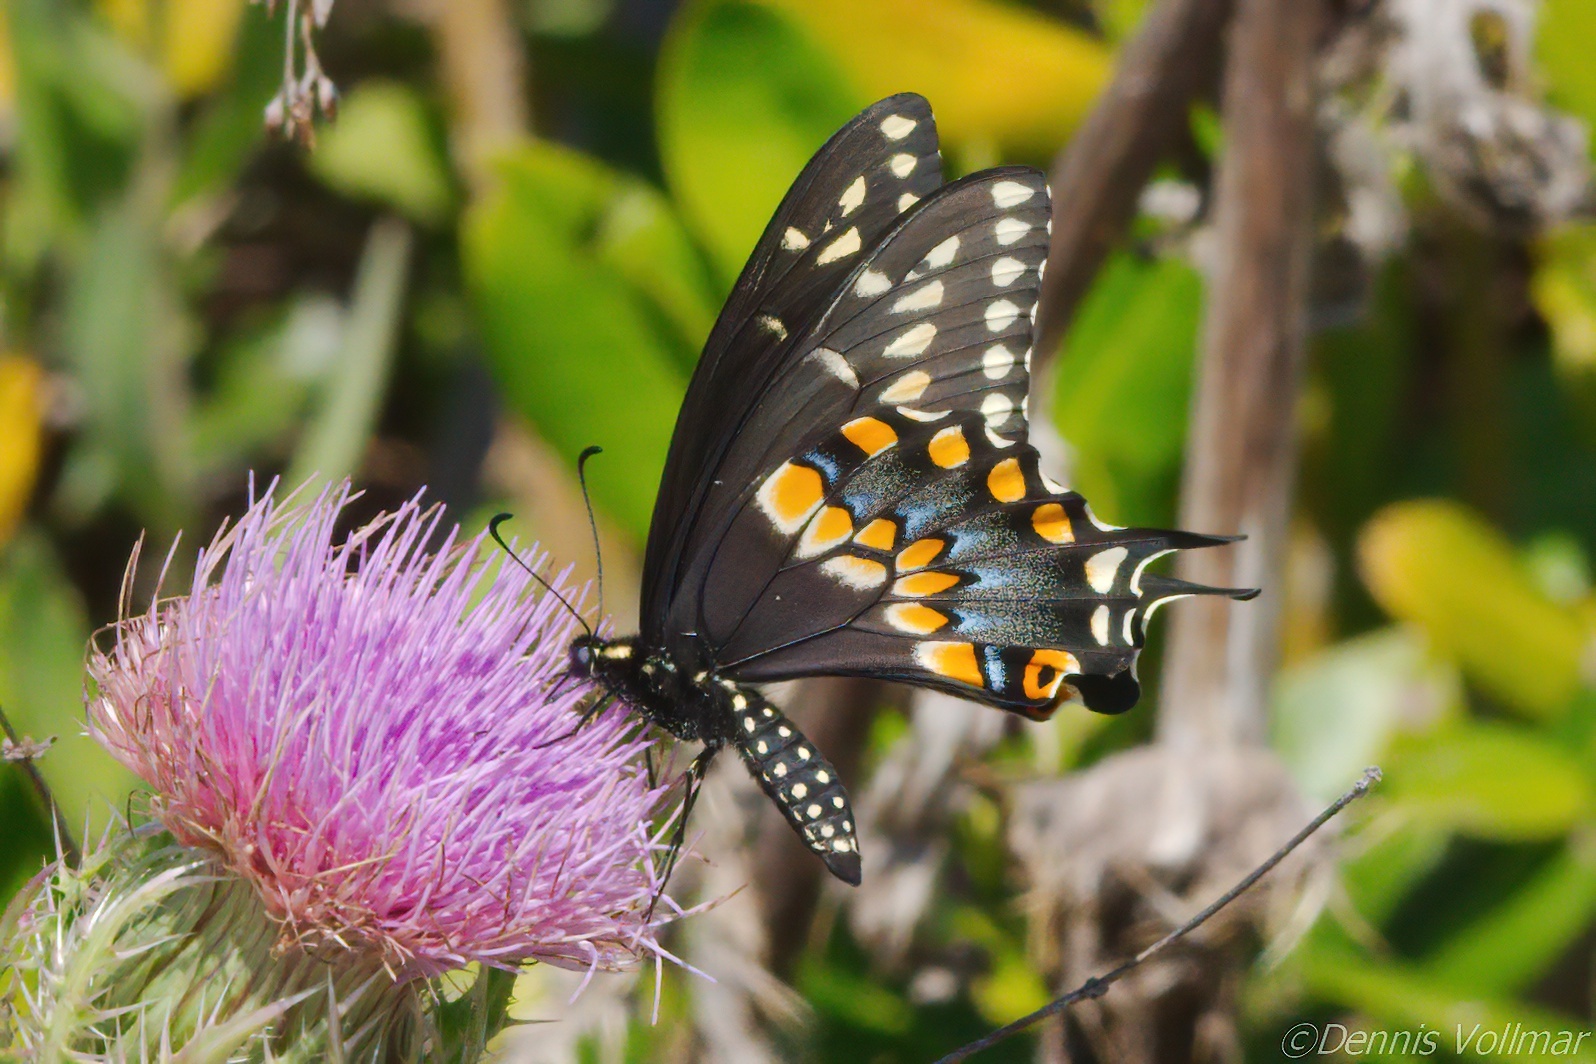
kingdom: Animalia
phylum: Arthropoda
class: Insecta
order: Lepidoptera
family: Papilionidae
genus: Papilio
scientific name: Papilio polyxenes
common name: Black swallowtail
